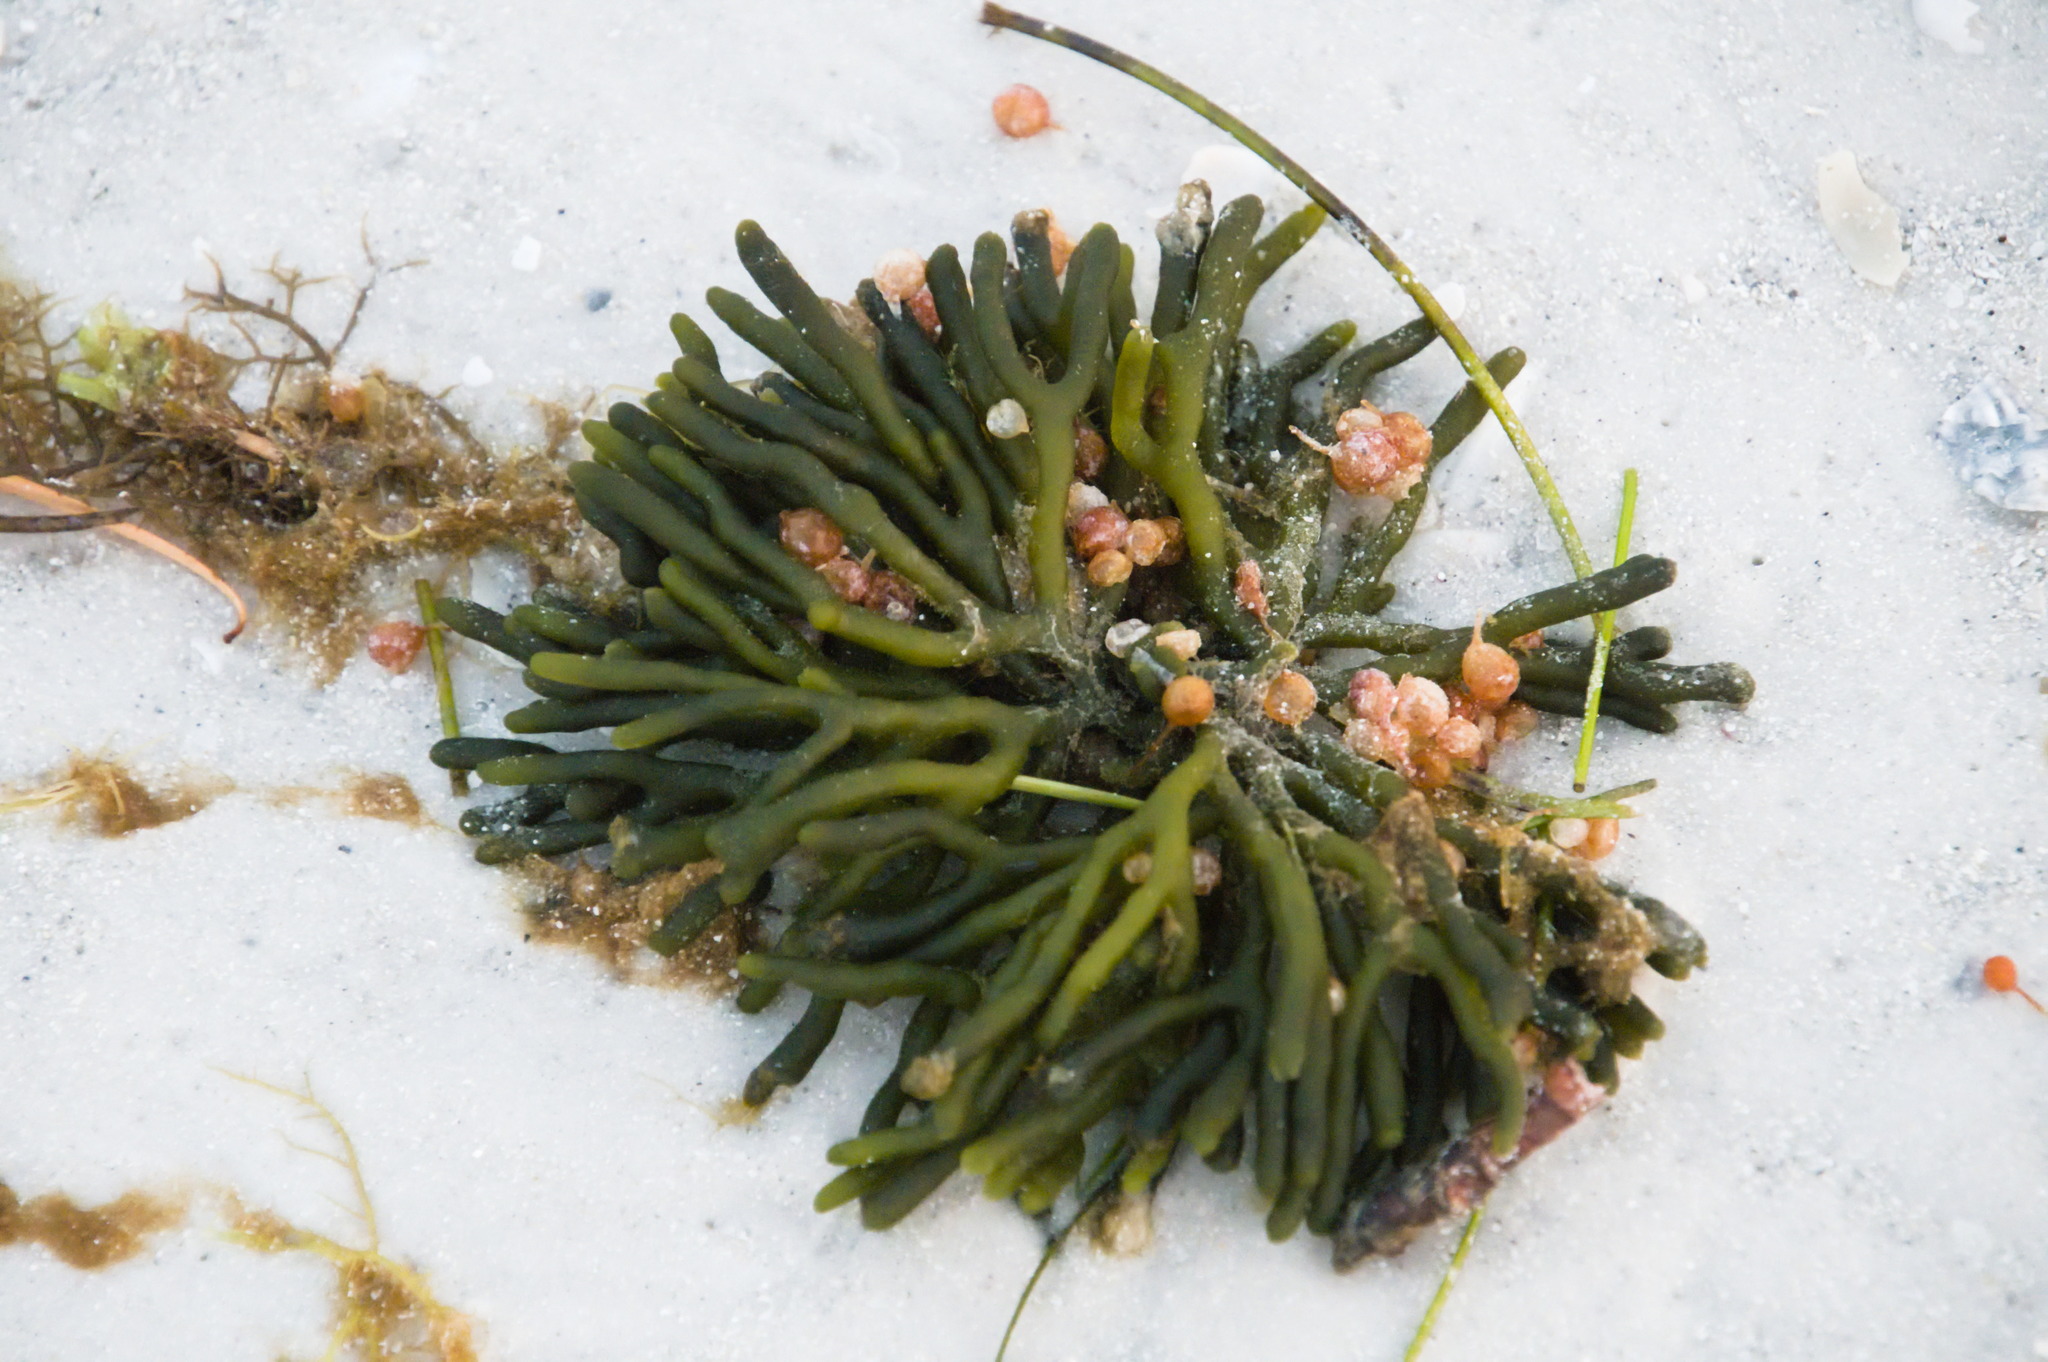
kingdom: Plantae
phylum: Chlorophyta
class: Ulvophyceae
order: Bryopsidales
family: Codiaceae
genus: Codium
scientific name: Codium fragile
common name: Dead man's fingers
